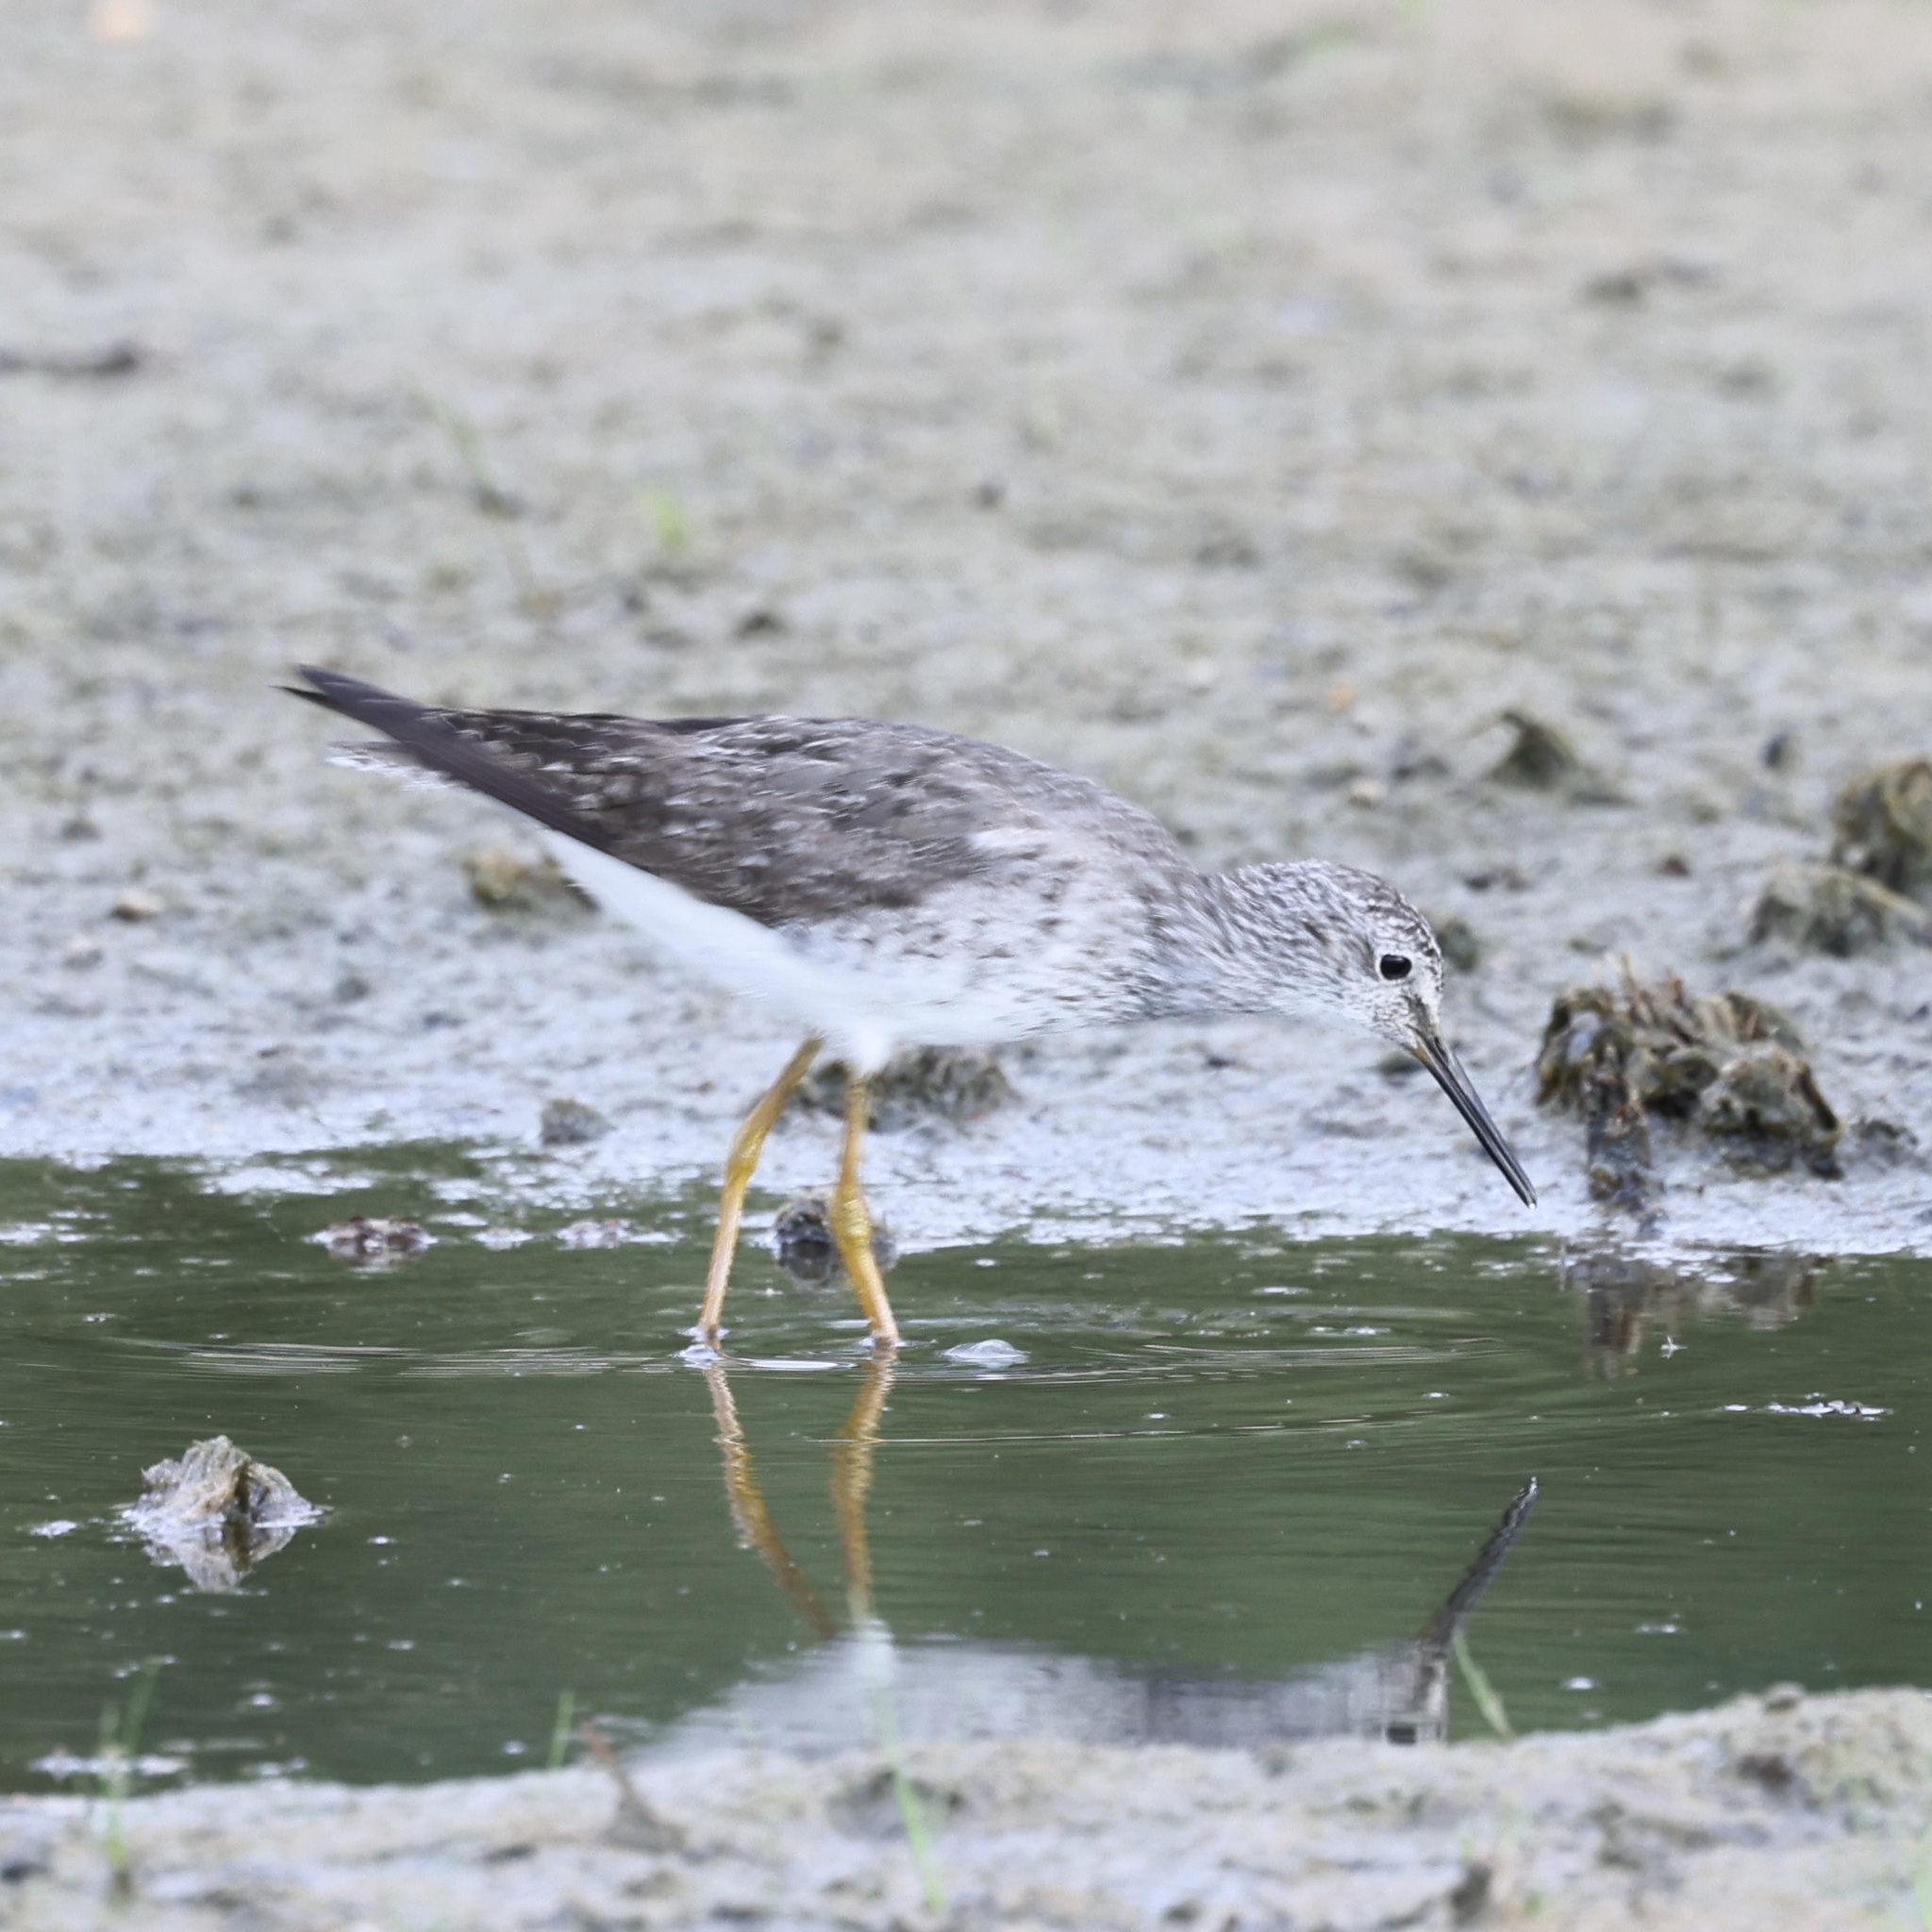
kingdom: Animalia
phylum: Chordata
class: Aves
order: Charadriiformes
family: Scolopacidae
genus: Tringa
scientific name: Tringa flavipes
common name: Lesser yellowlegs
